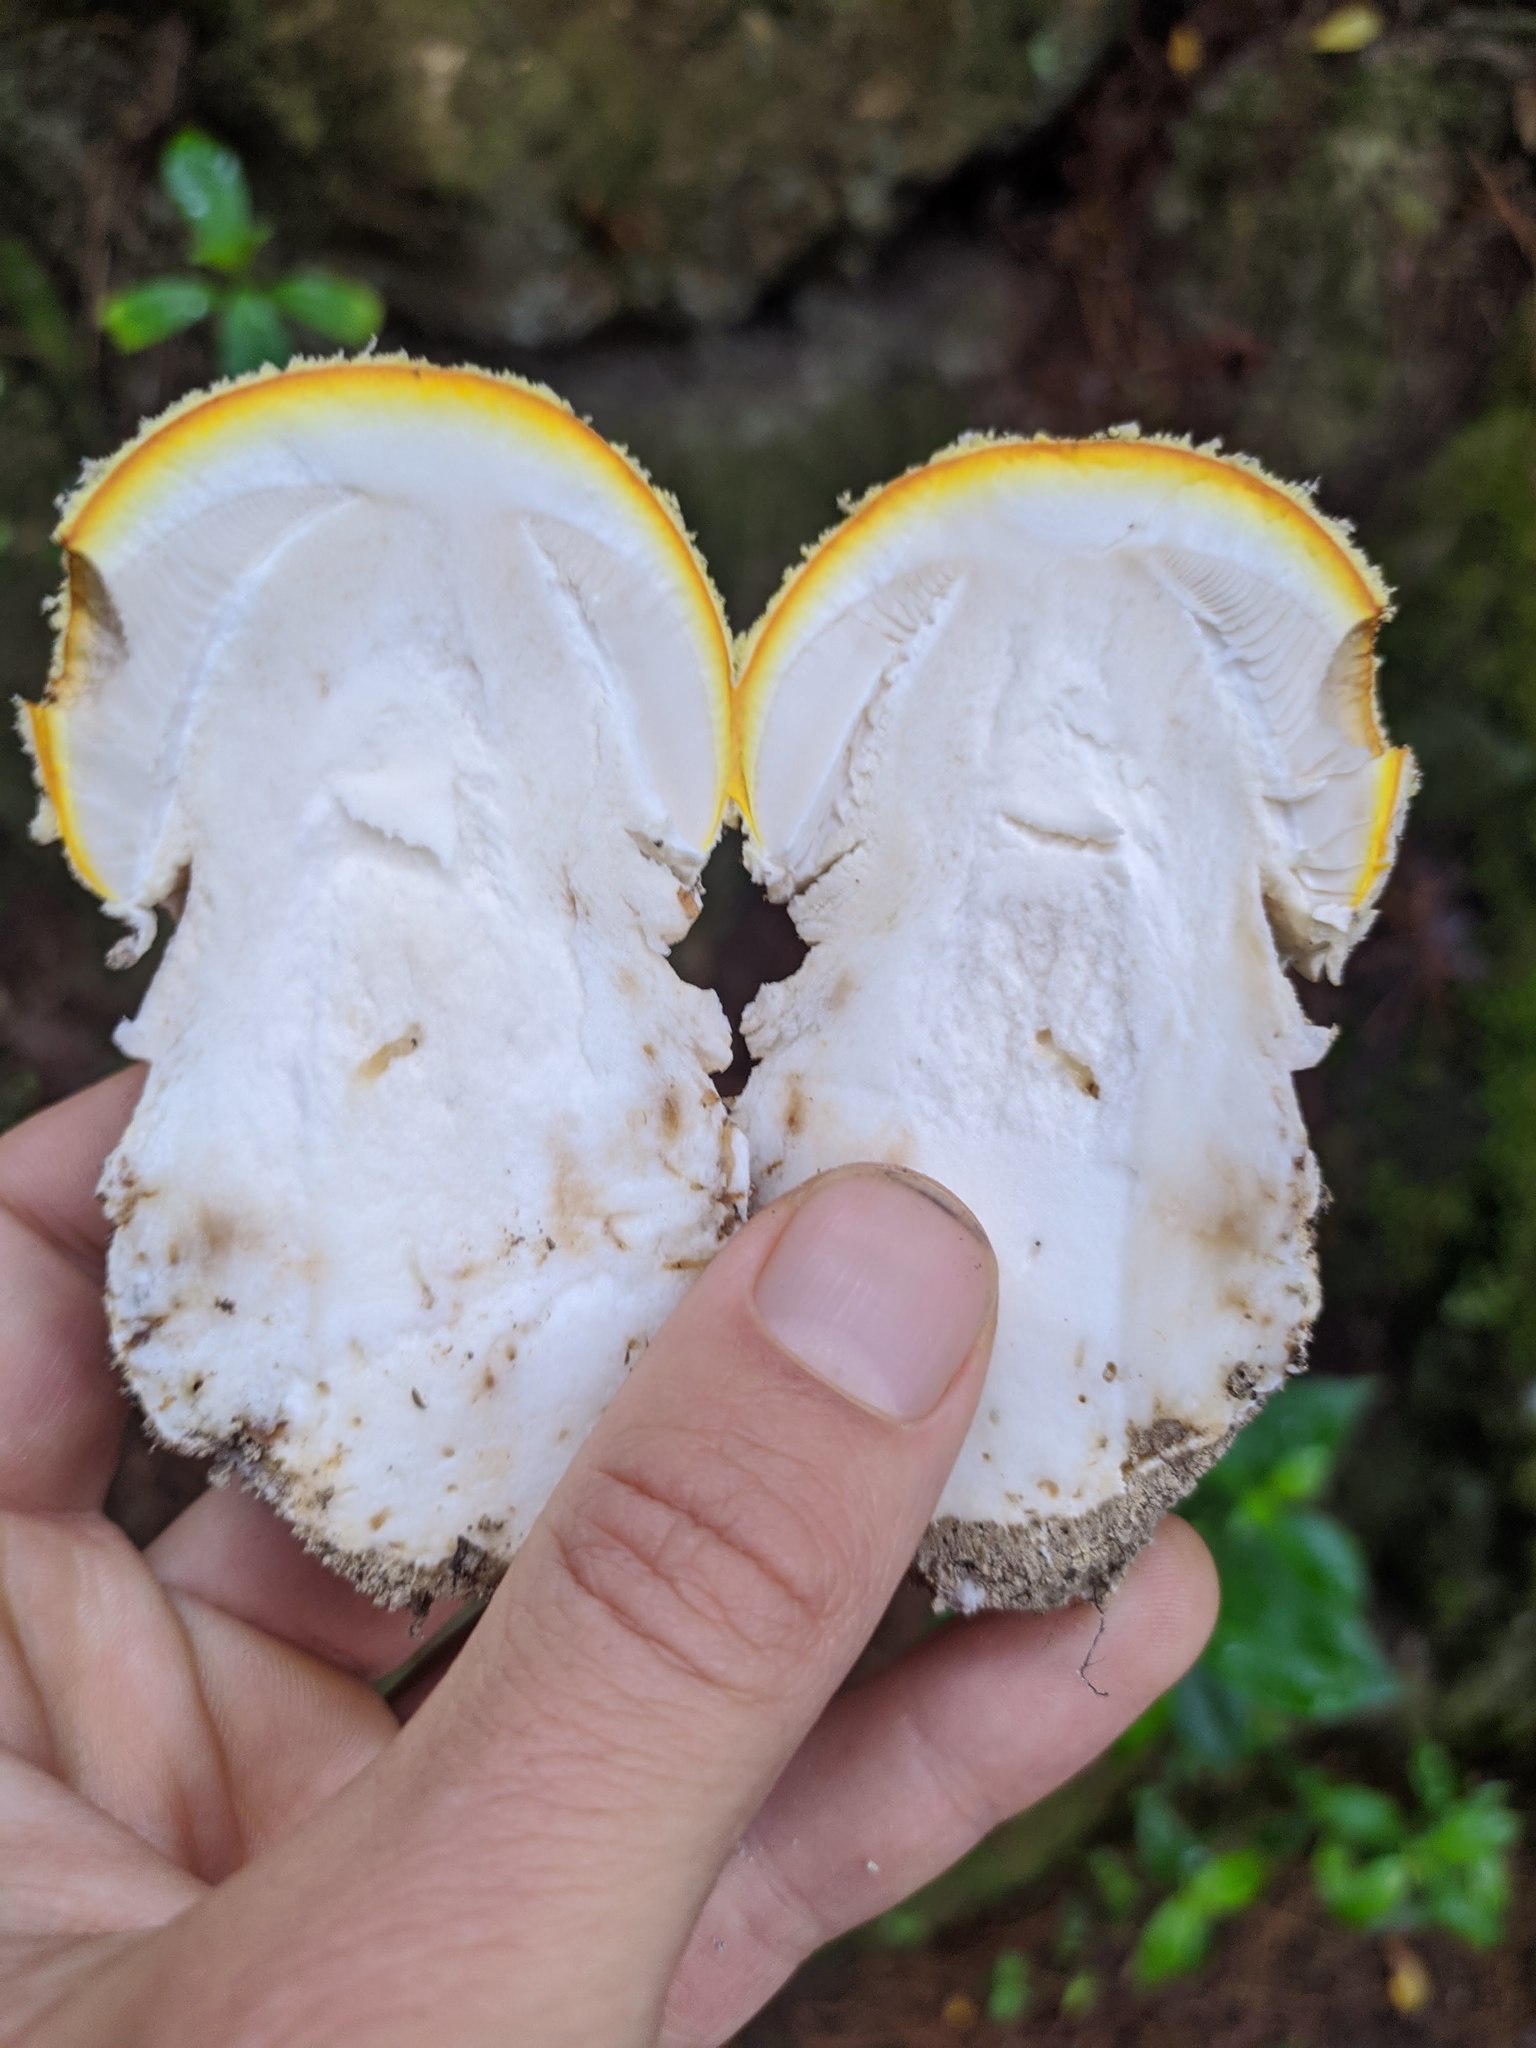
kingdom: Fungi
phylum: Basidiomycota
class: Agaricomycetes
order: Agaricales
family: Amanitaceae
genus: Amanita
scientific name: Amanita muscaria
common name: Fly agaric
